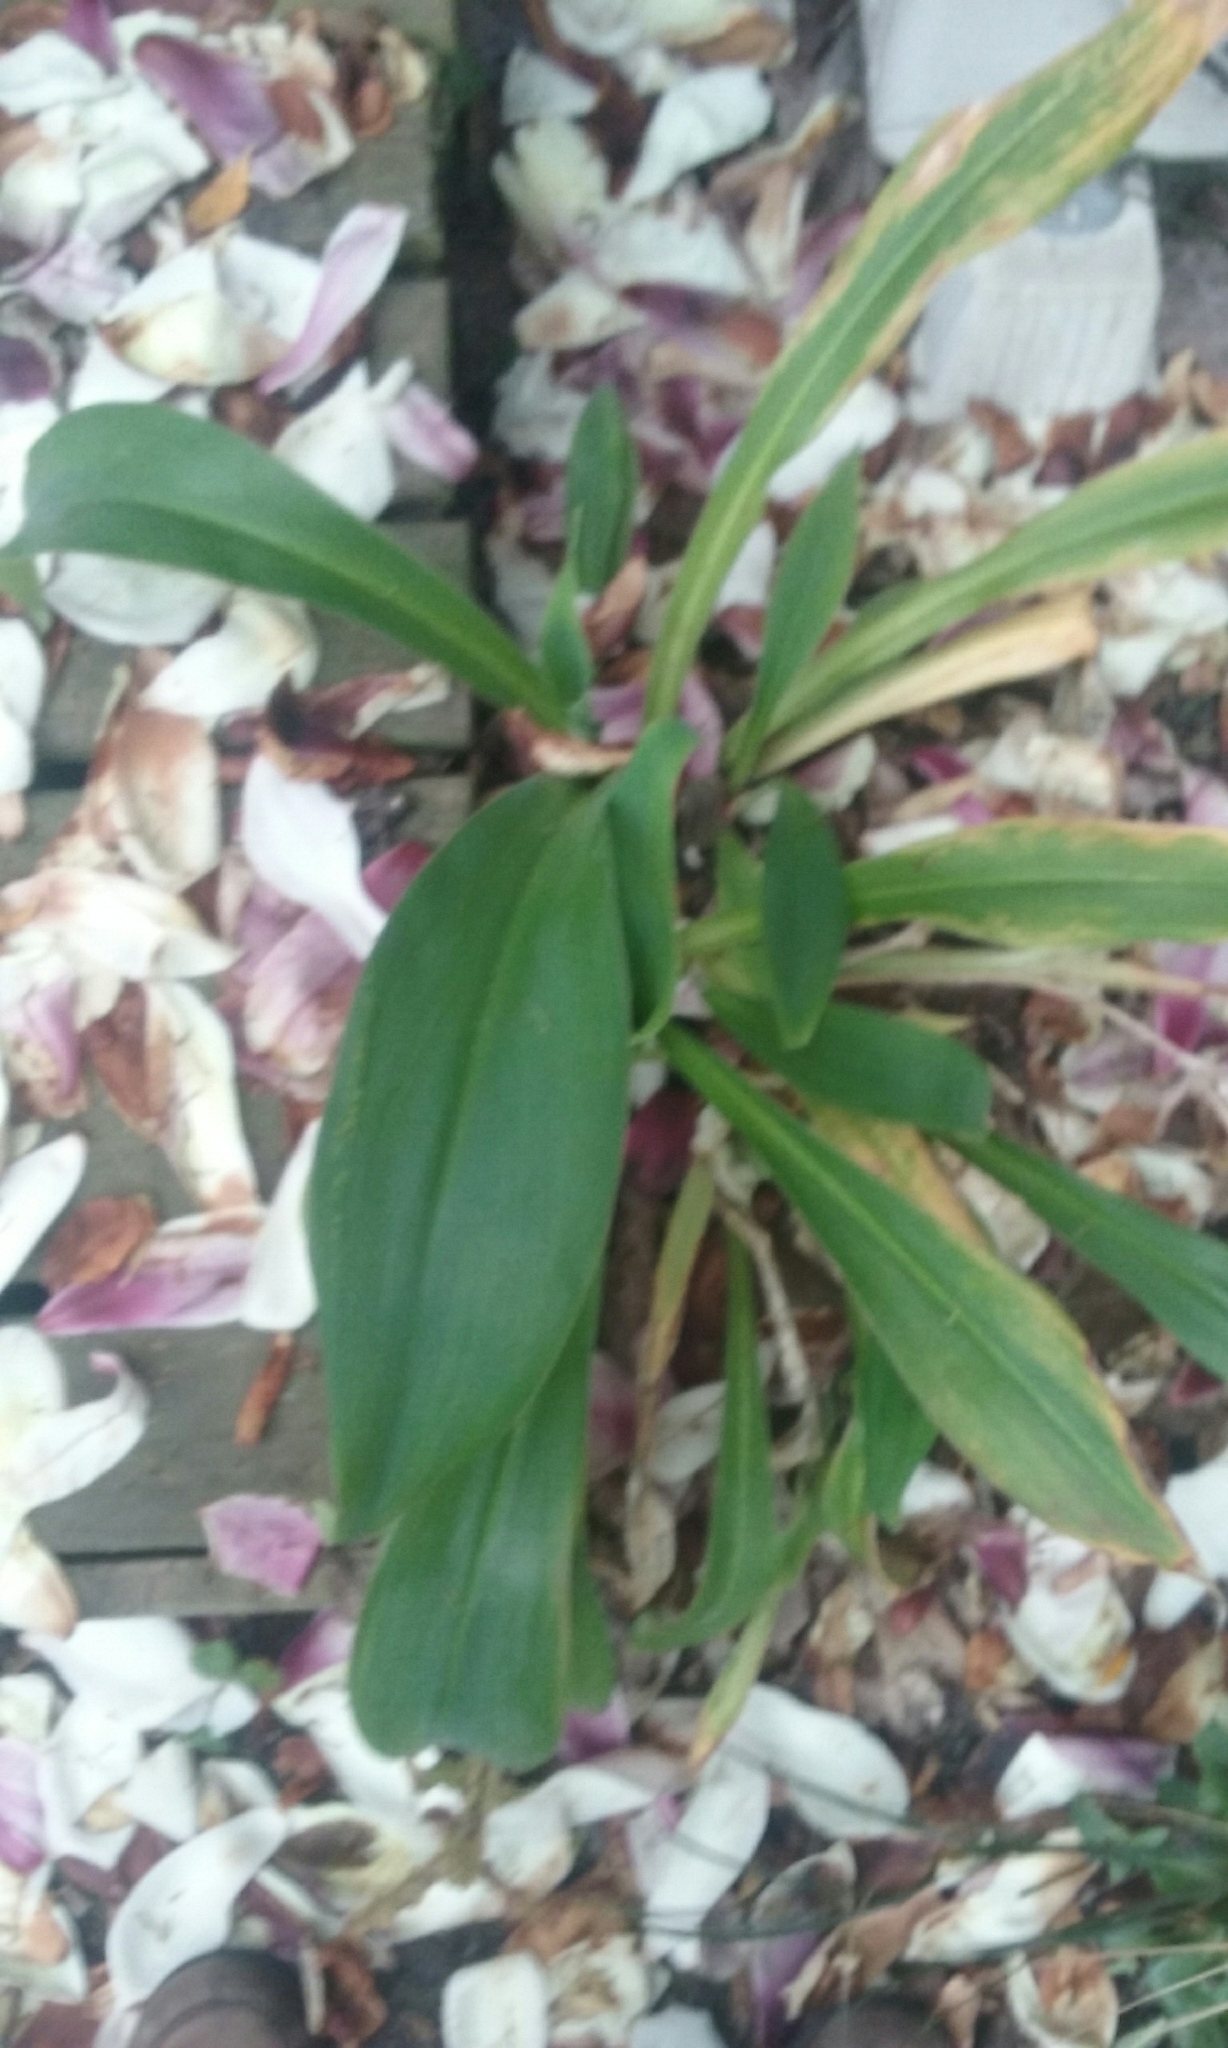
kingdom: Plantae
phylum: Tracheophyta
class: Liliopsida
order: Asparagales
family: Asparagaceae
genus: Arthropodium
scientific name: Arthropodium cirratum
